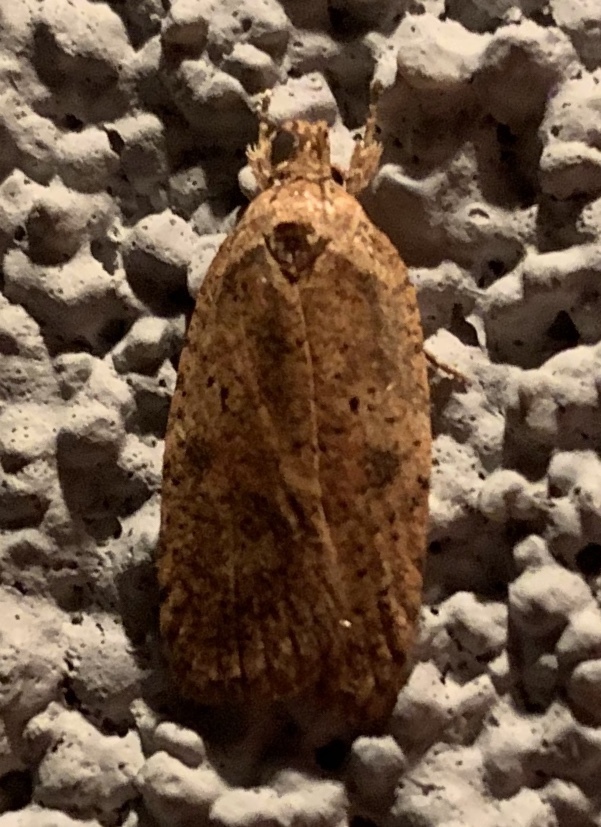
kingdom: Animalia
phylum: Arthropoda
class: Insecta
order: Lepidoptera
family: Depressariidae
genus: Agonopterix
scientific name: Agonopterix thelmae
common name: Thelma's agonopterix moth
